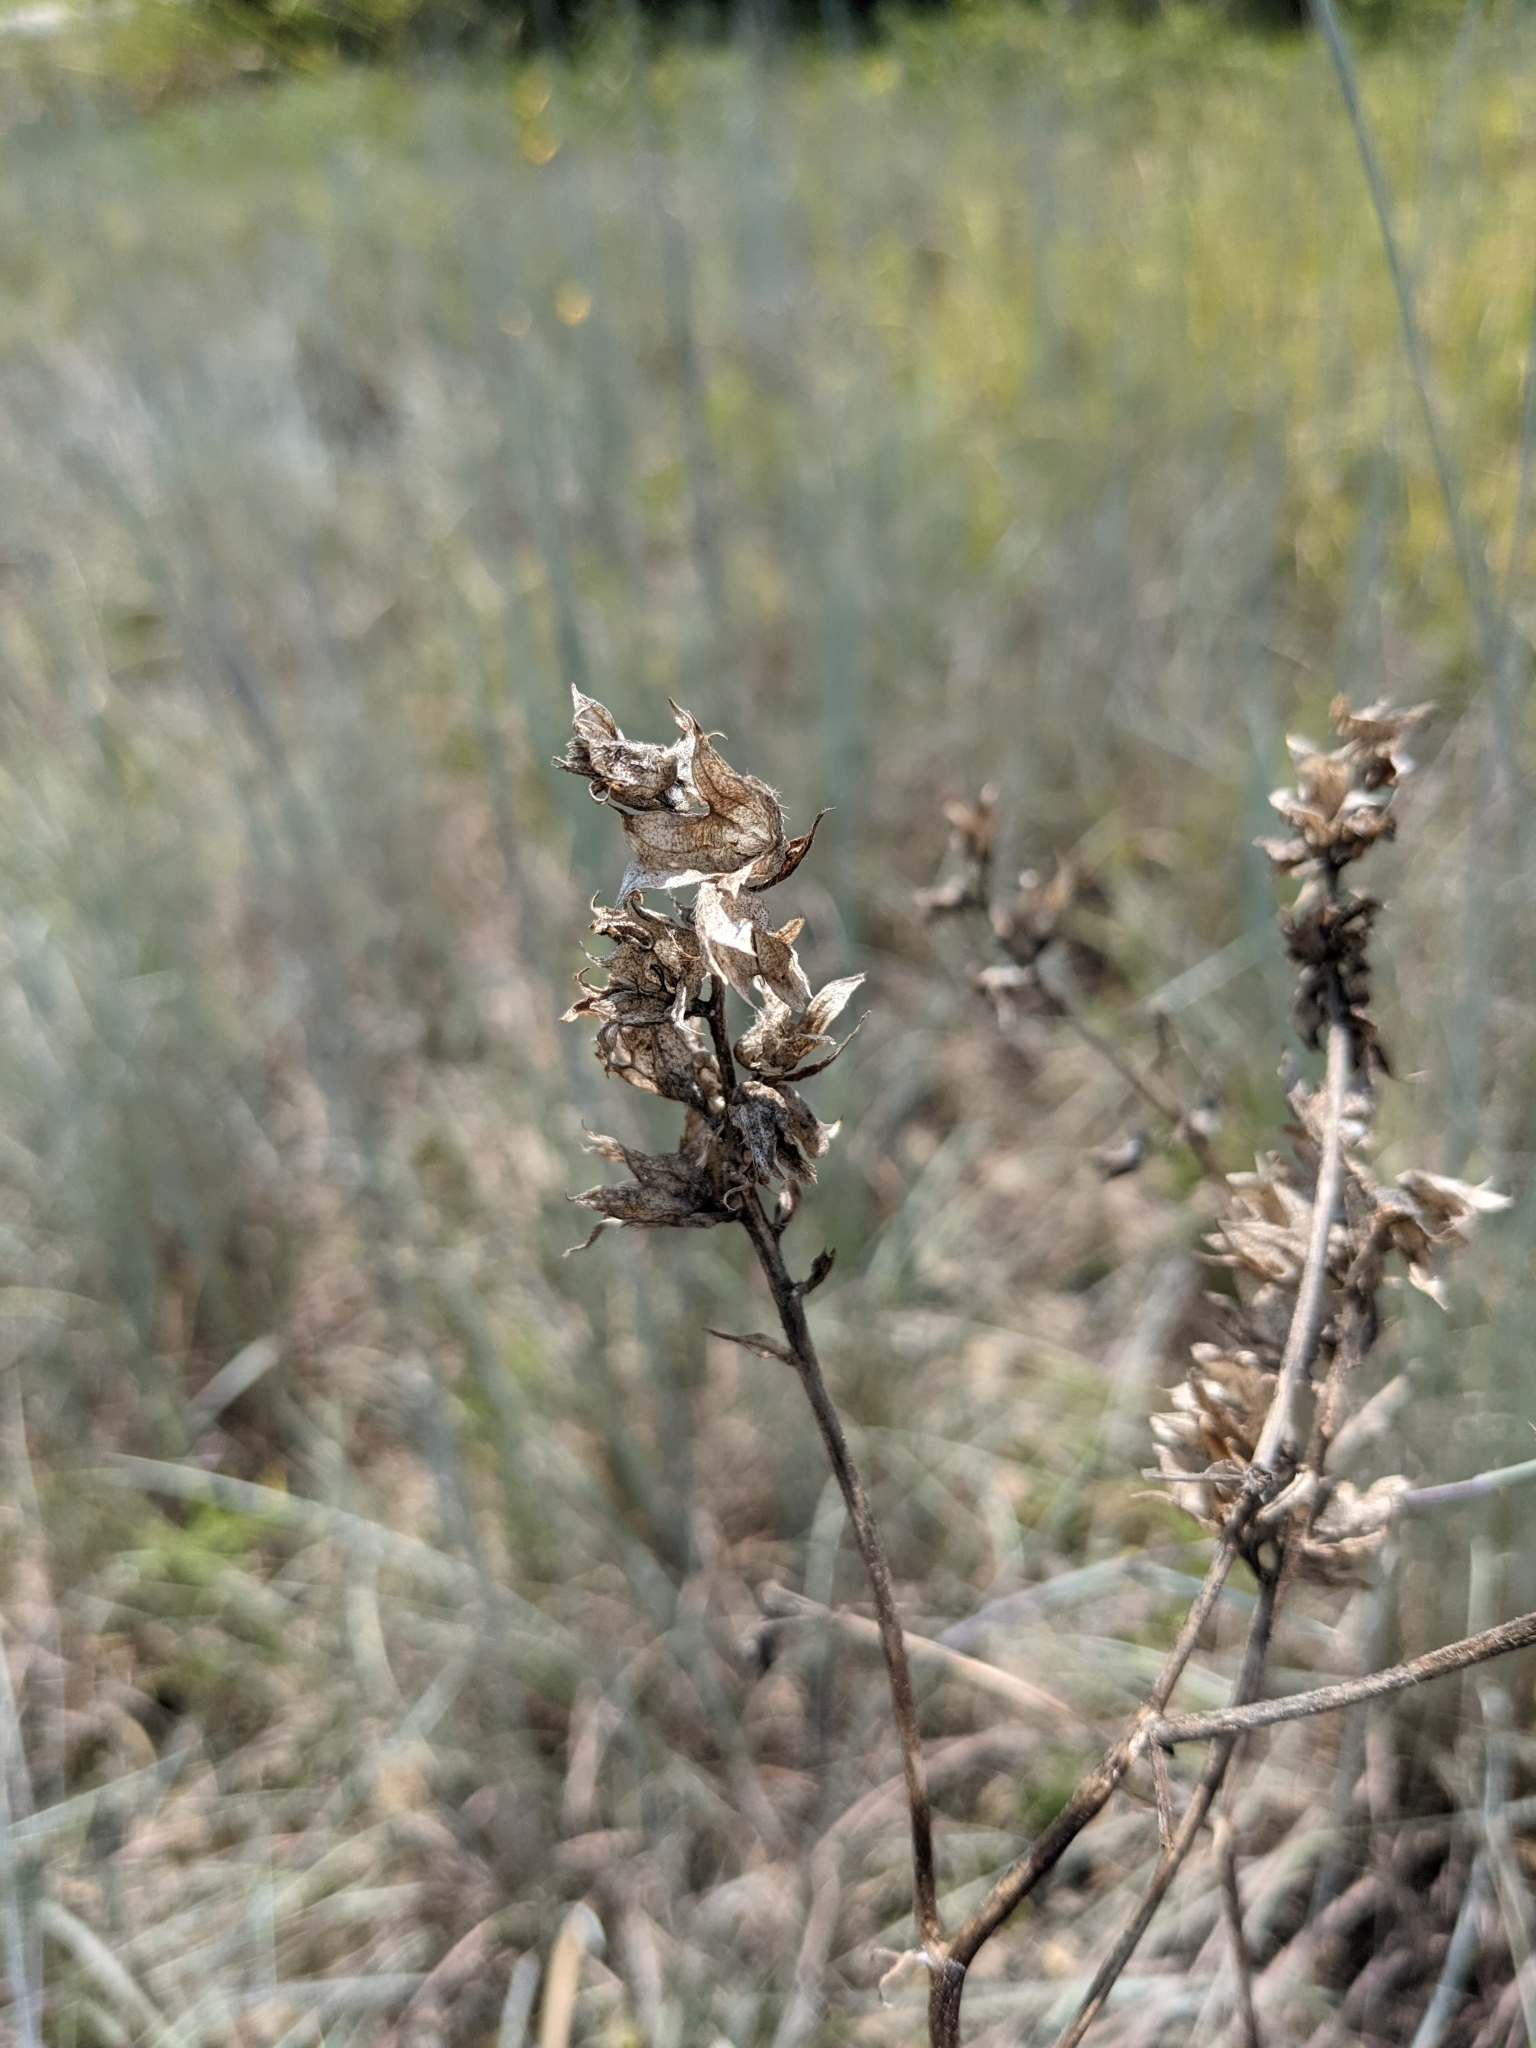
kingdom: Plantae
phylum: Tracheophyta
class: Magnoliopsida
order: Fabales
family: Fabaceae
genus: Pediomelum
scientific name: Pediomelum cuspidatum
